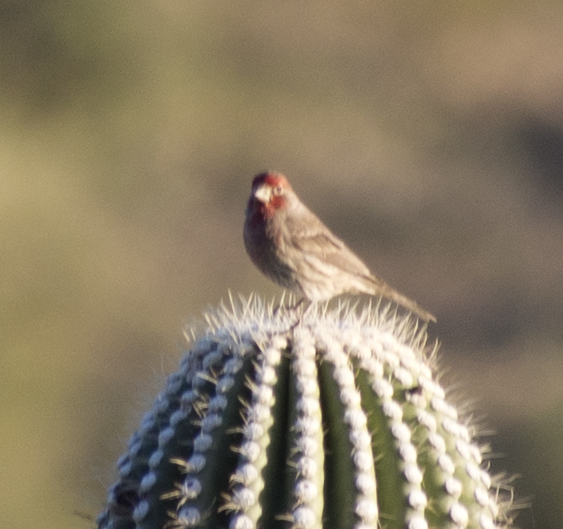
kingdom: Animalia
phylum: Chordata
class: Aves
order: Passeriformes
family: Fringillidae
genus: Haemorhous
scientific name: Haemorhous mexicanus
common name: House finch
